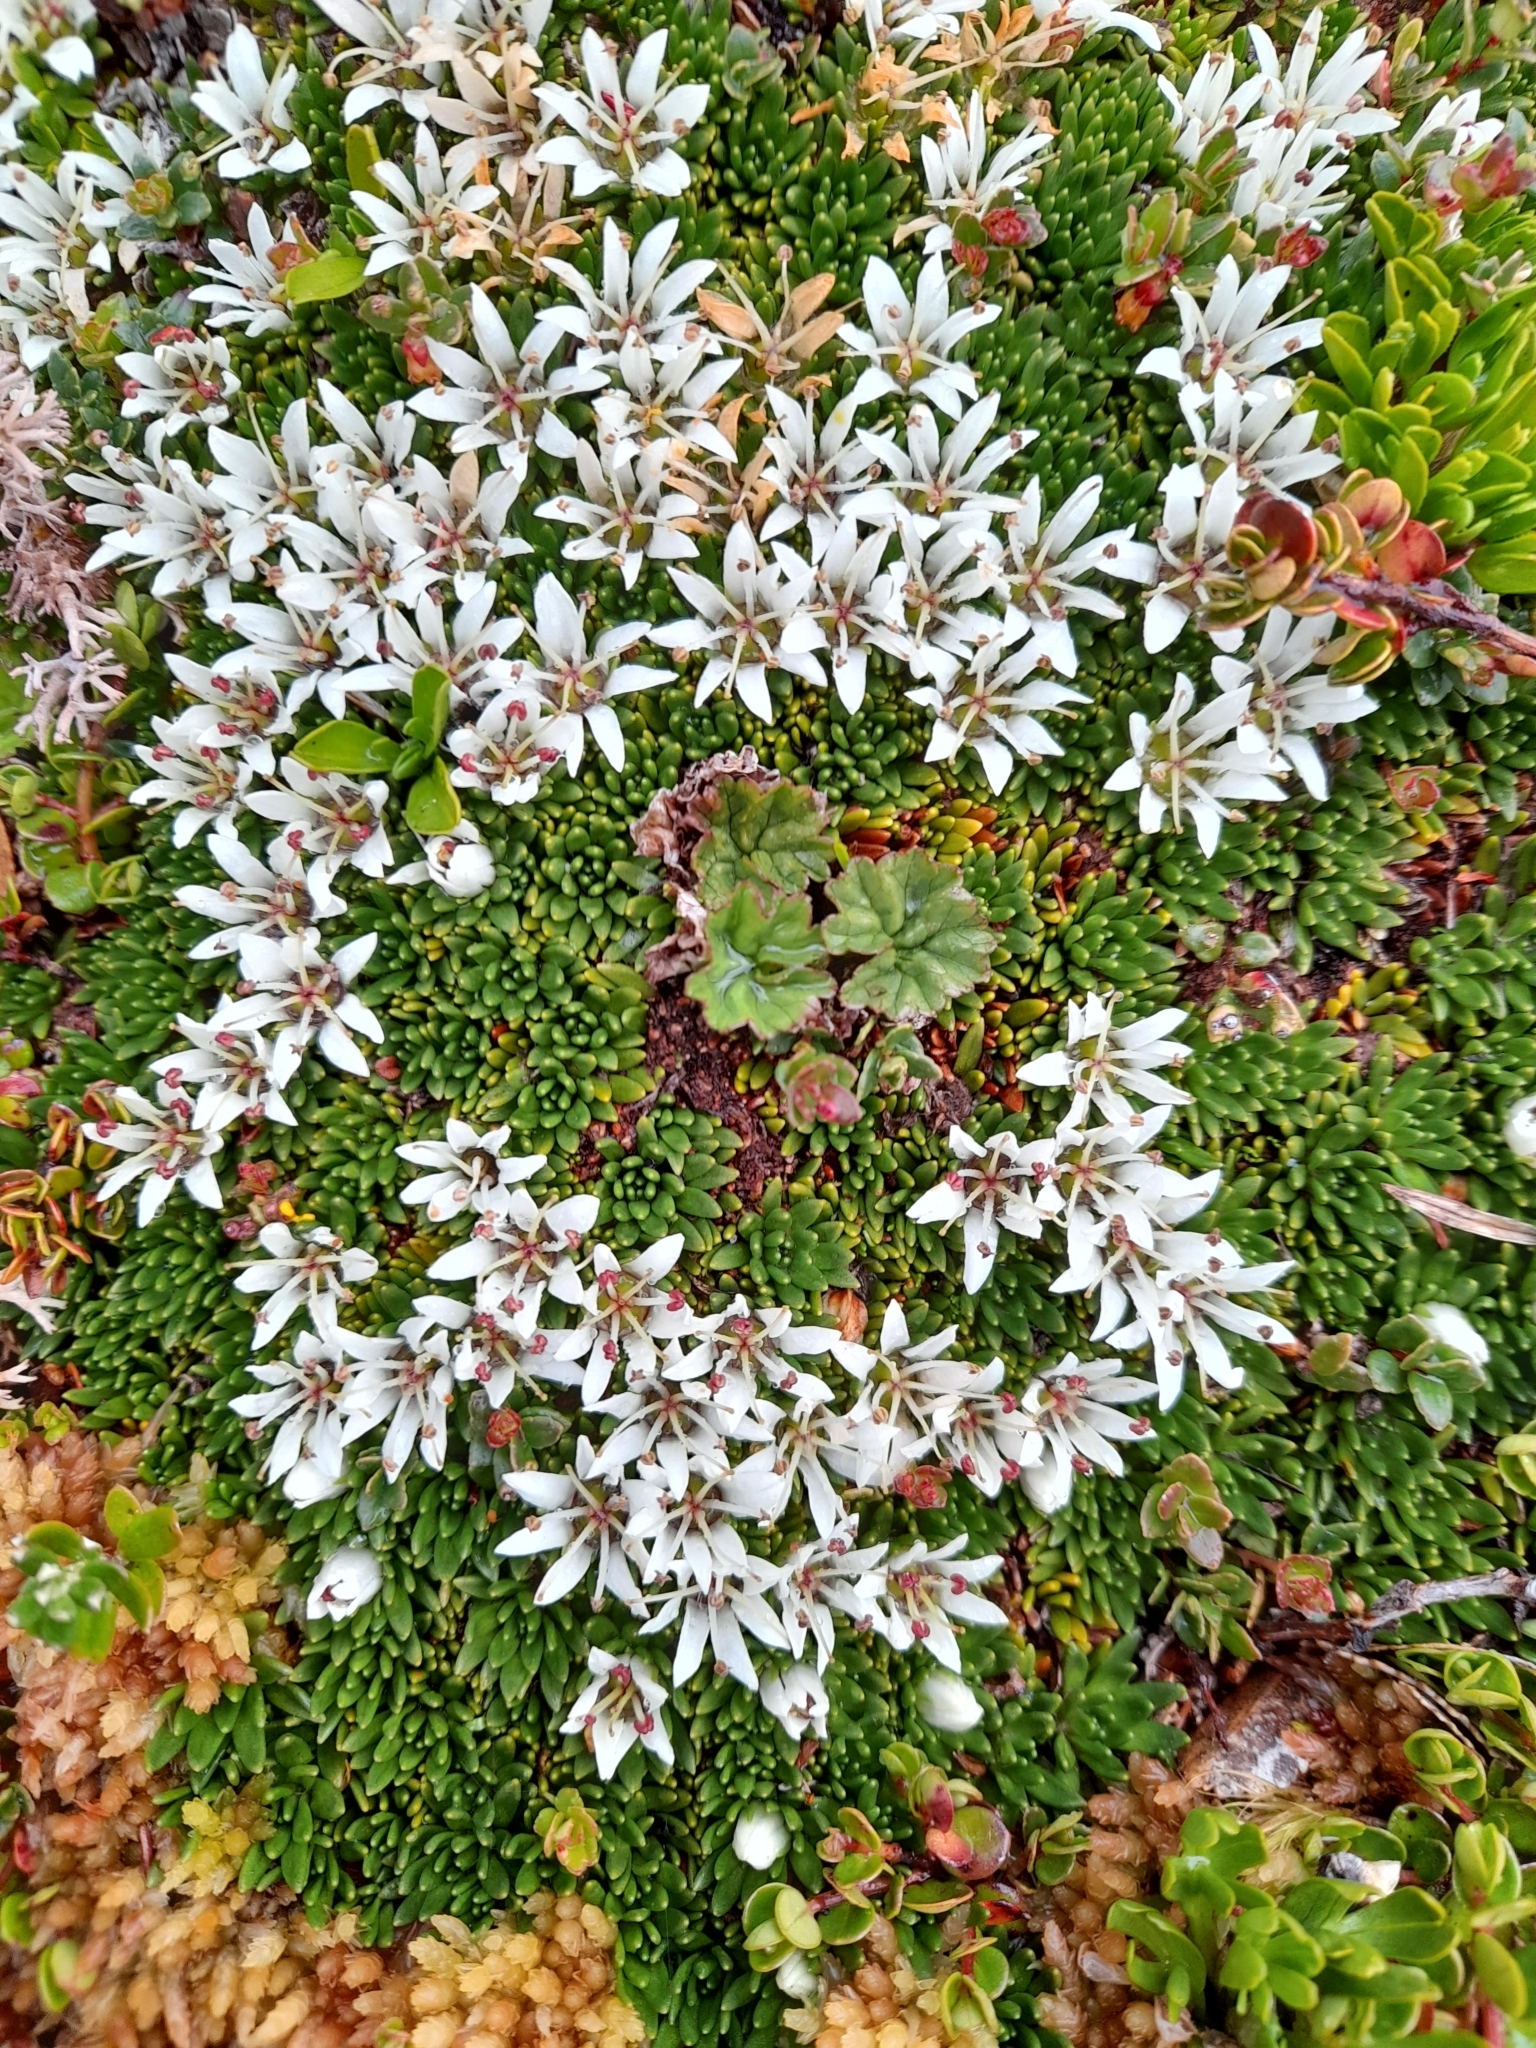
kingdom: Plantae
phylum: Tracheophyta
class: Magnoliopsida
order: Asterales
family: Stylidiaceae
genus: Donatia
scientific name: Donatia fascicularis
